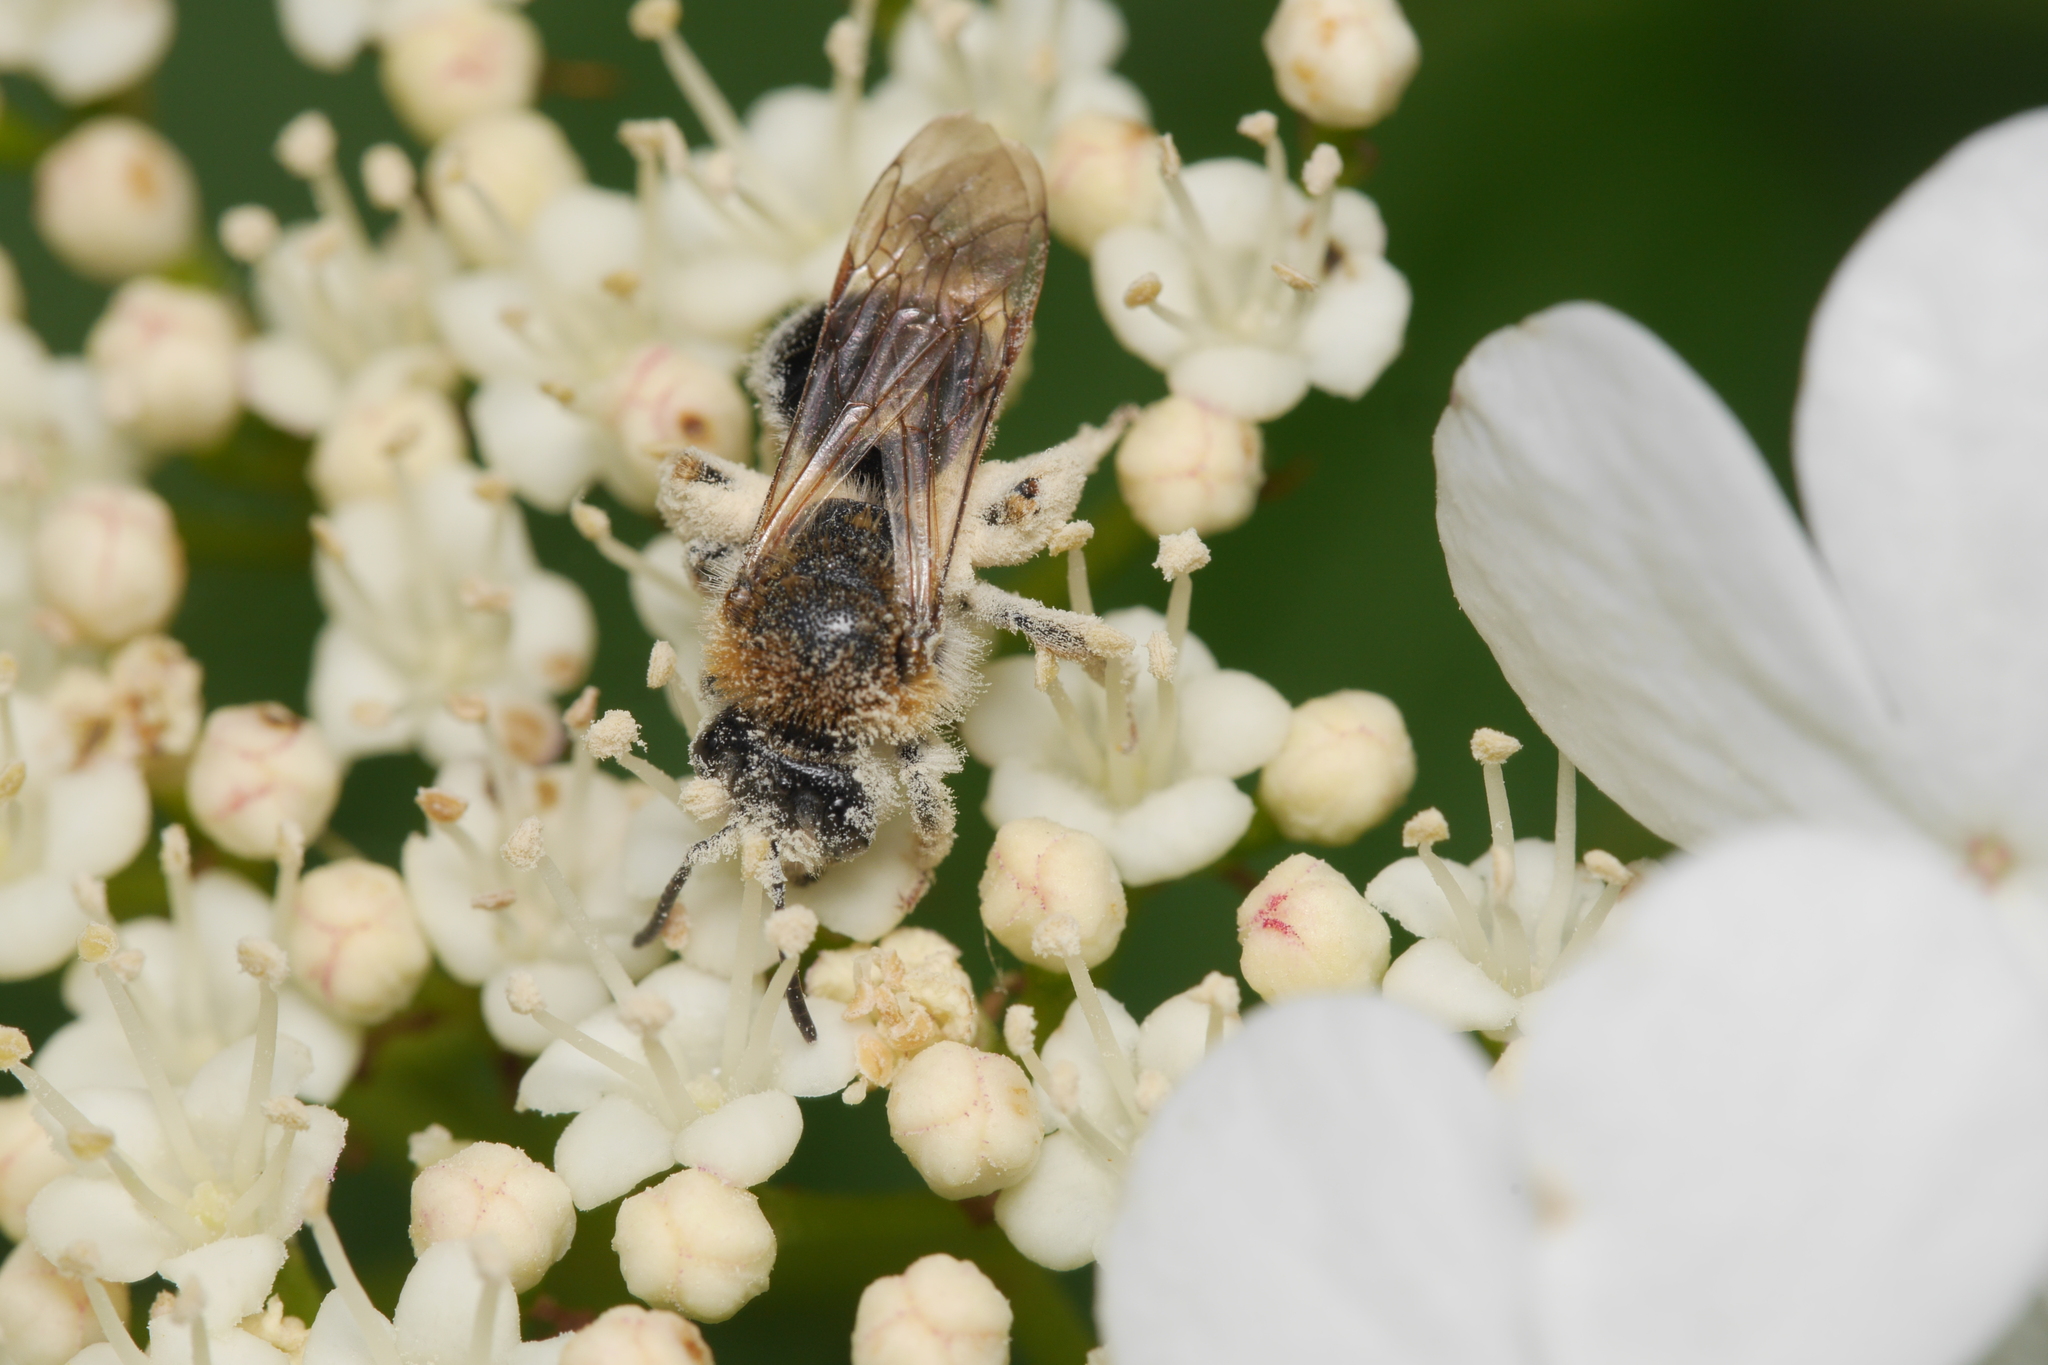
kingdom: Animalia
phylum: Arthropoda
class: Insecta
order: Hymenoptera
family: Andrenidae
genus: Andrena
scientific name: Andrena haemorrhoa
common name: Early mining bee
